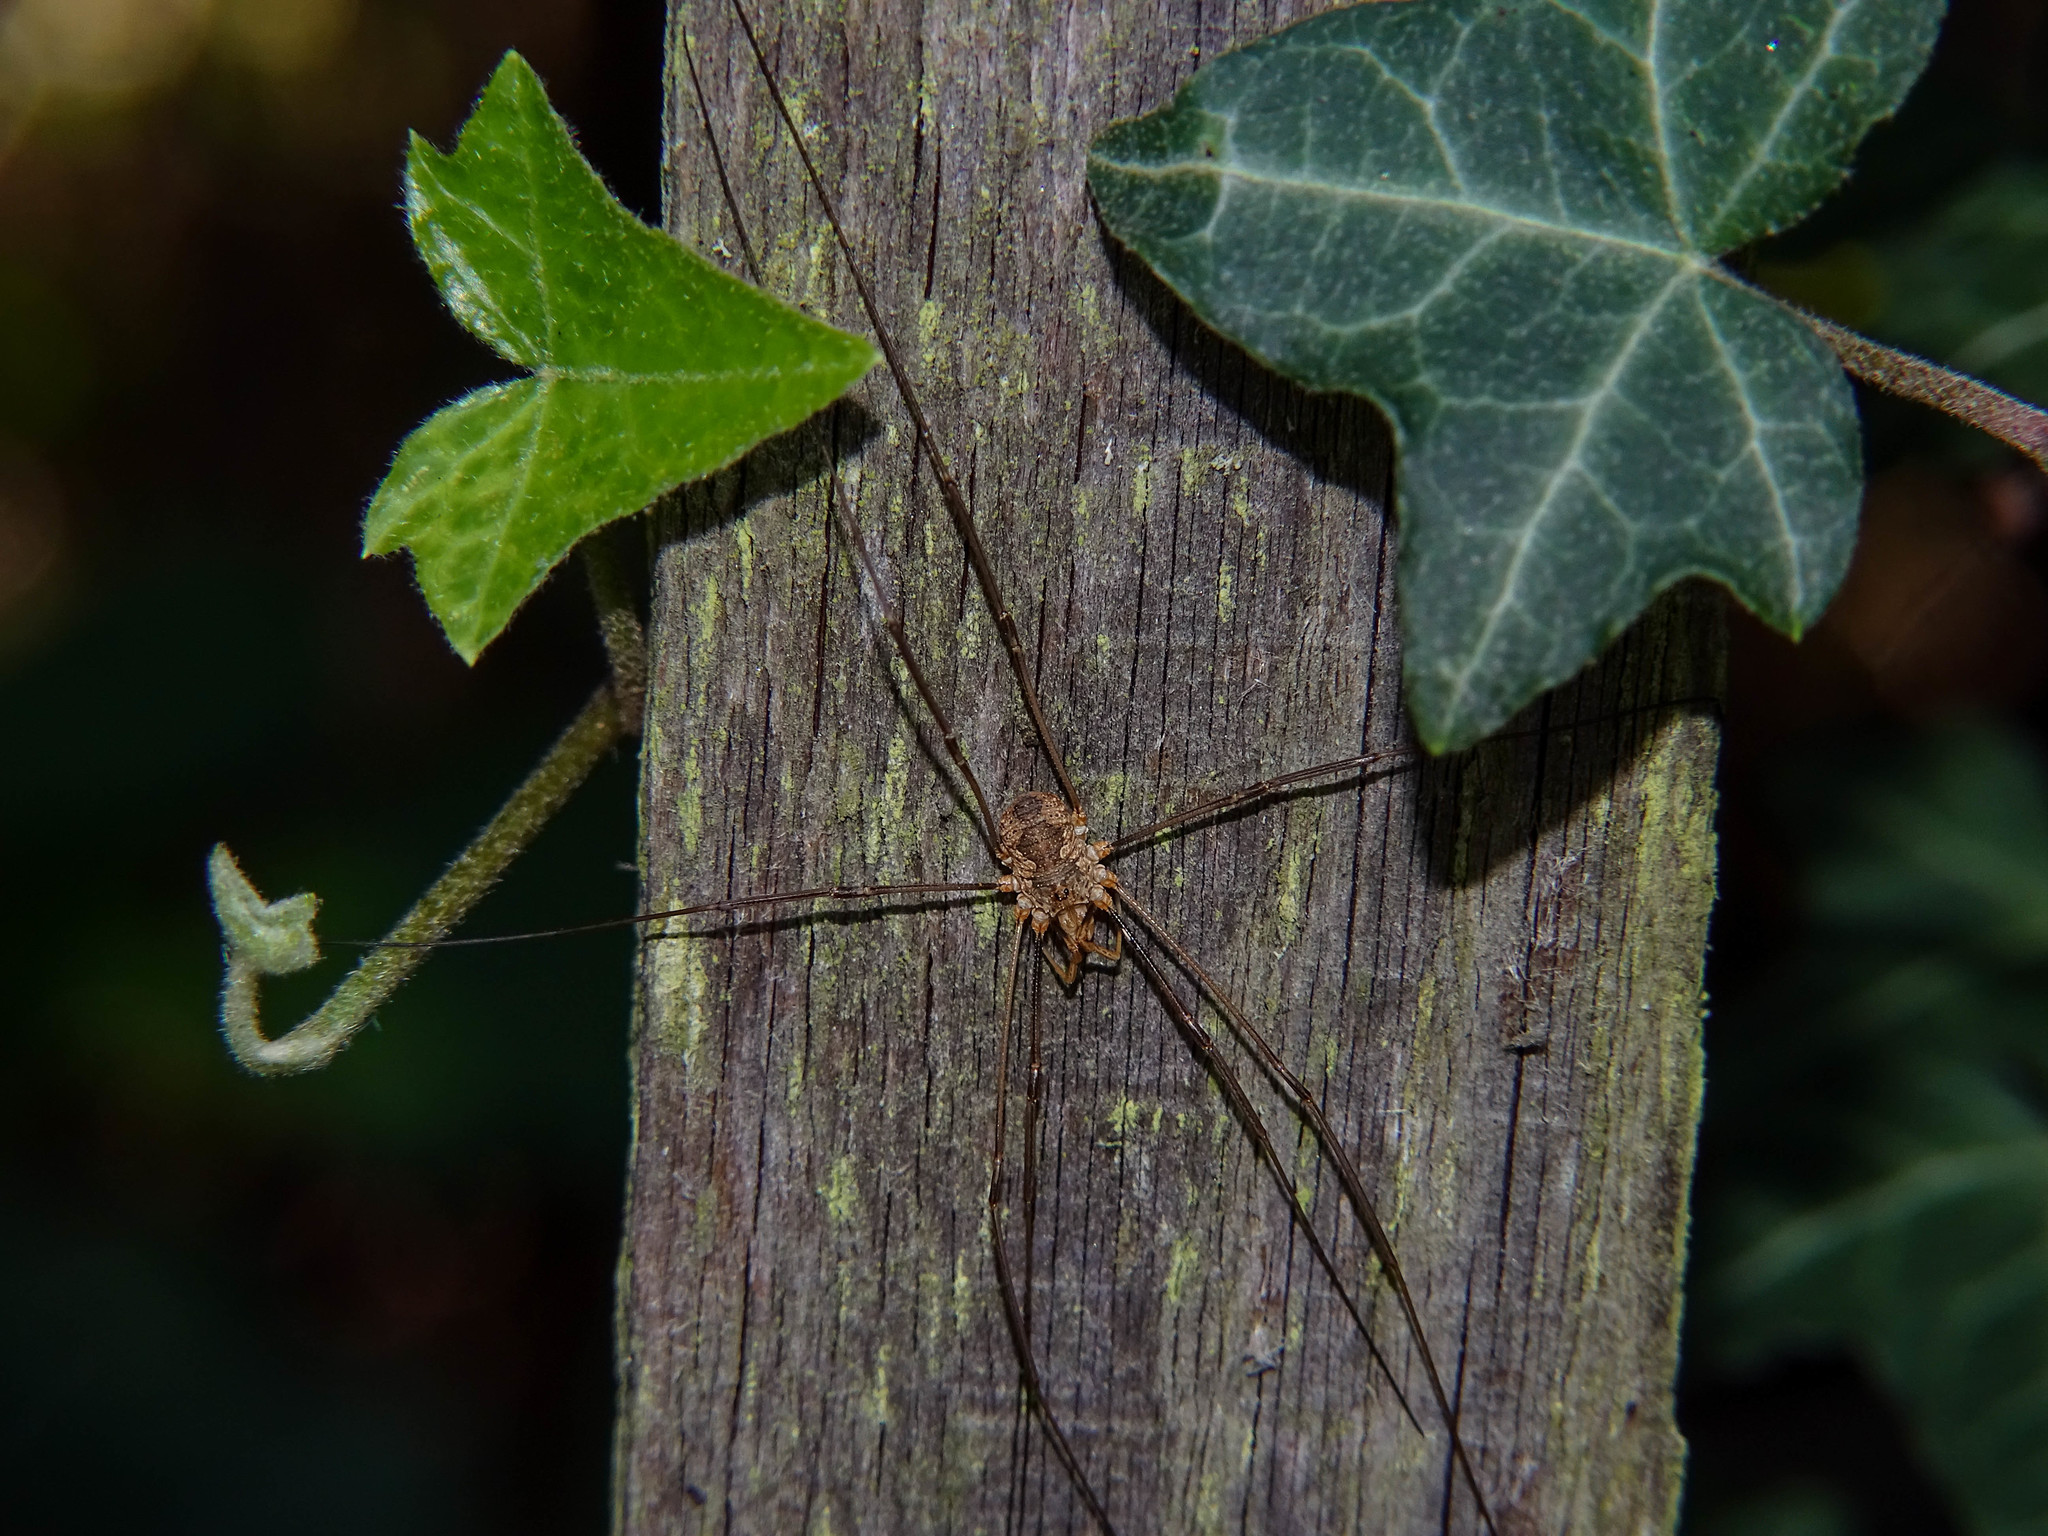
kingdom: Animalia
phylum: Arthropoda
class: Arachnida
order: Opiliones
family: Phalangiidae
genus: Phalangium
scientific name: Phalangium opilio
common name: Daddy longleg
